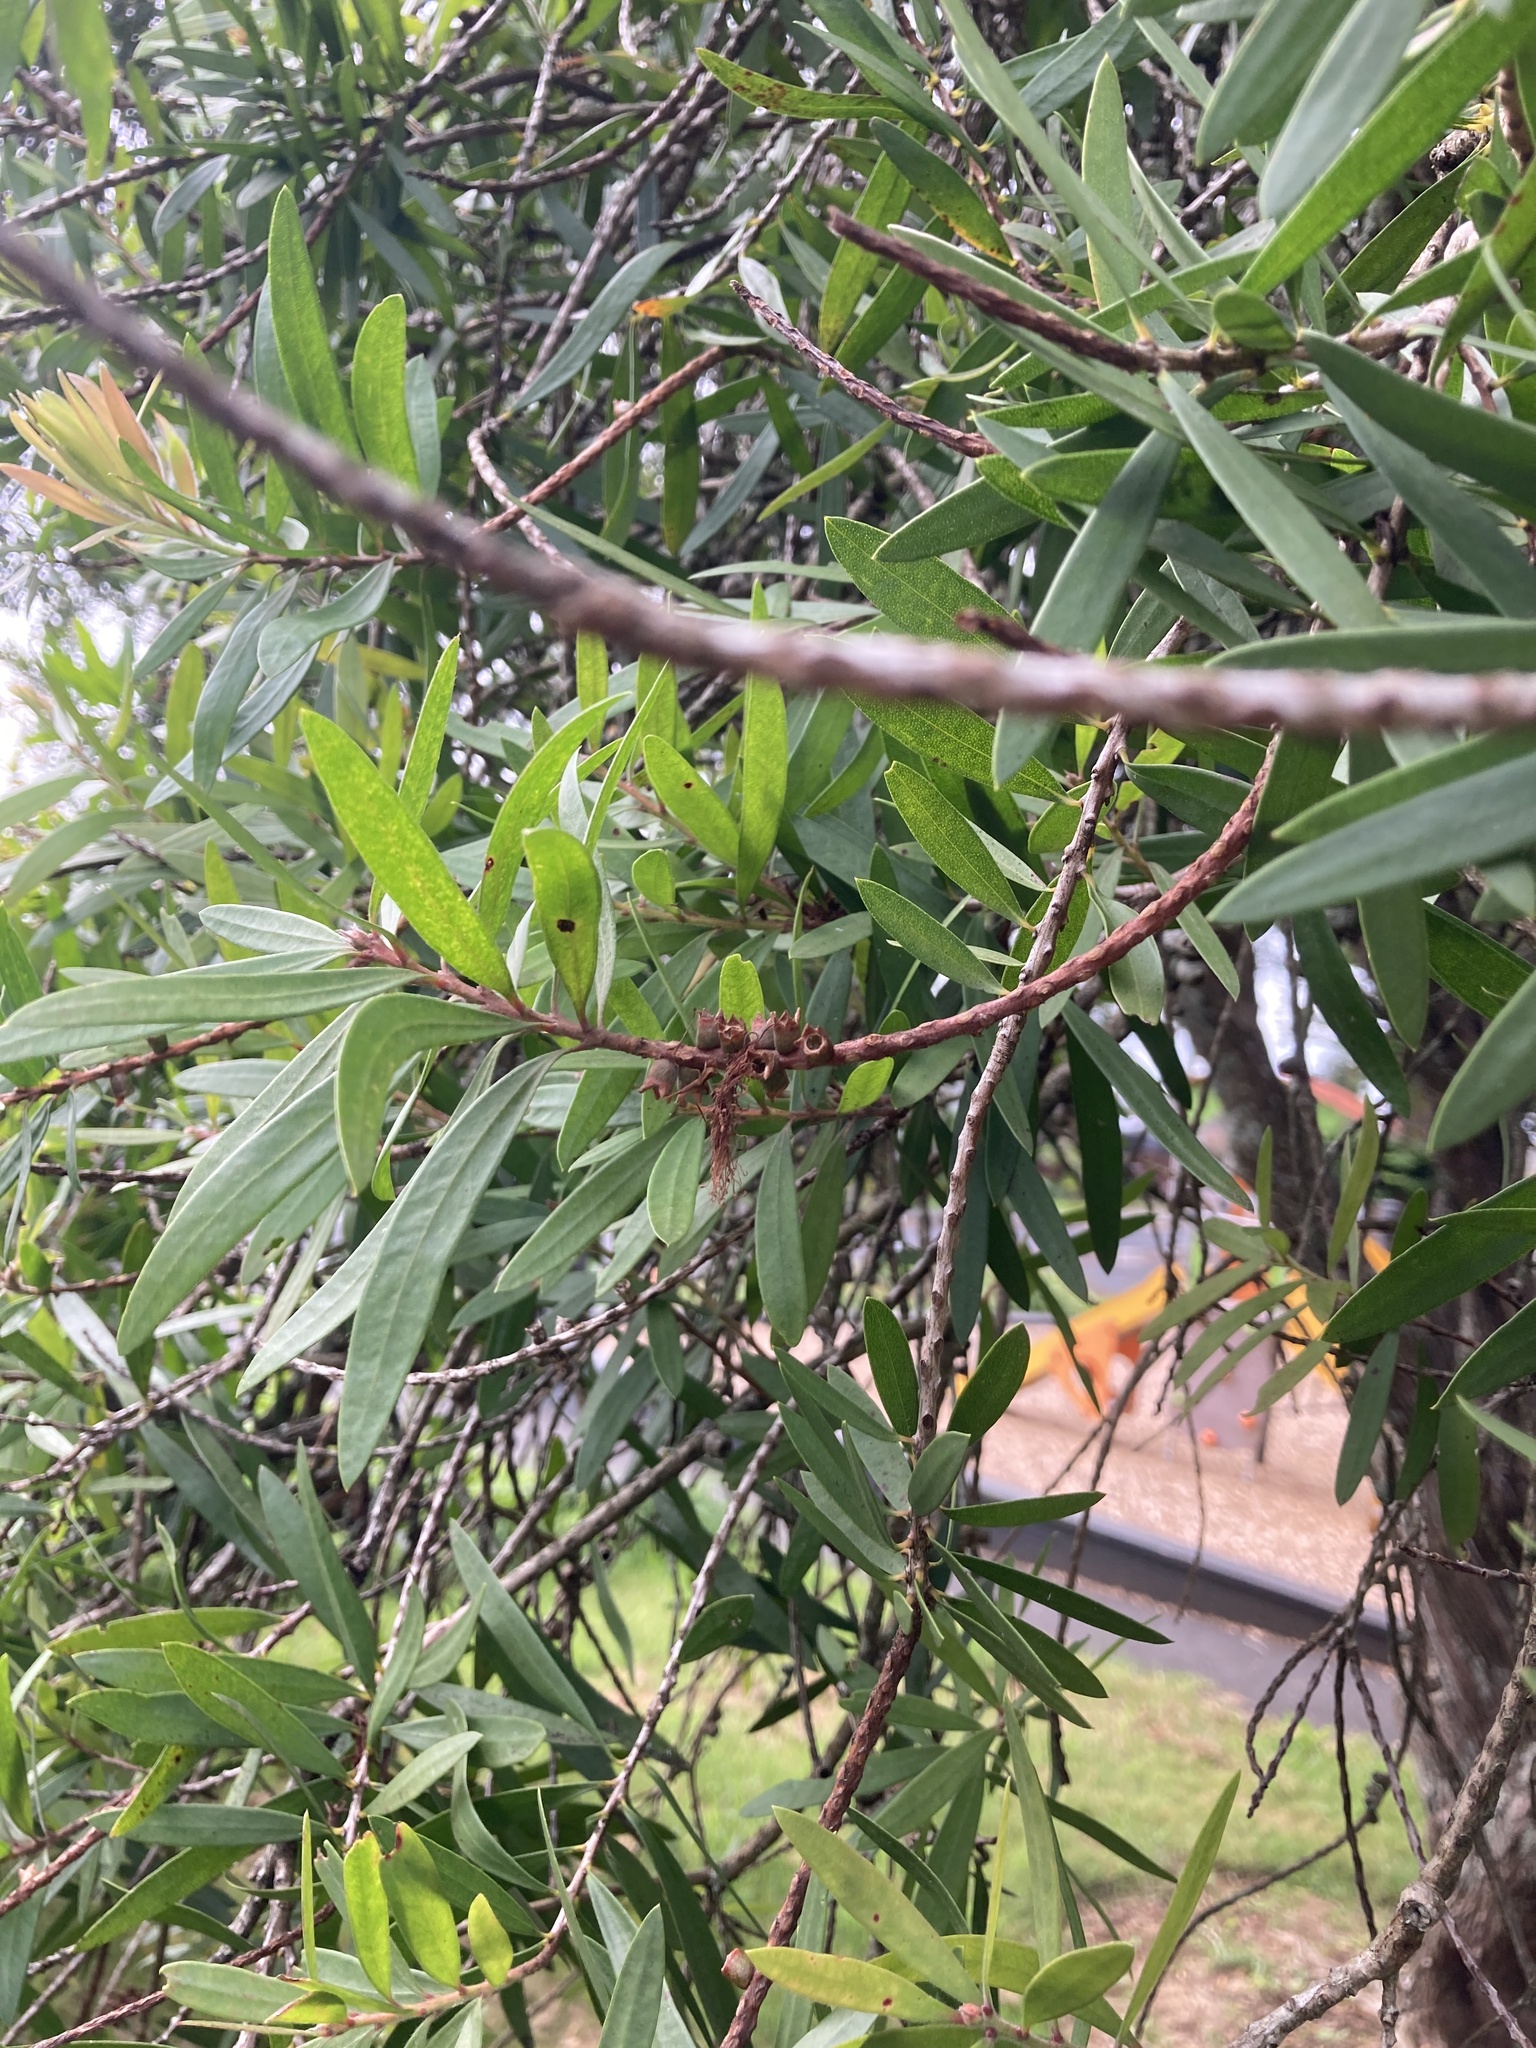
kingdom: Plantae
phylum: Tracheophyta
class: Magnoliopsida
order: Myrtales
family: Myrtaceae
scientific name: Myrtaceae
